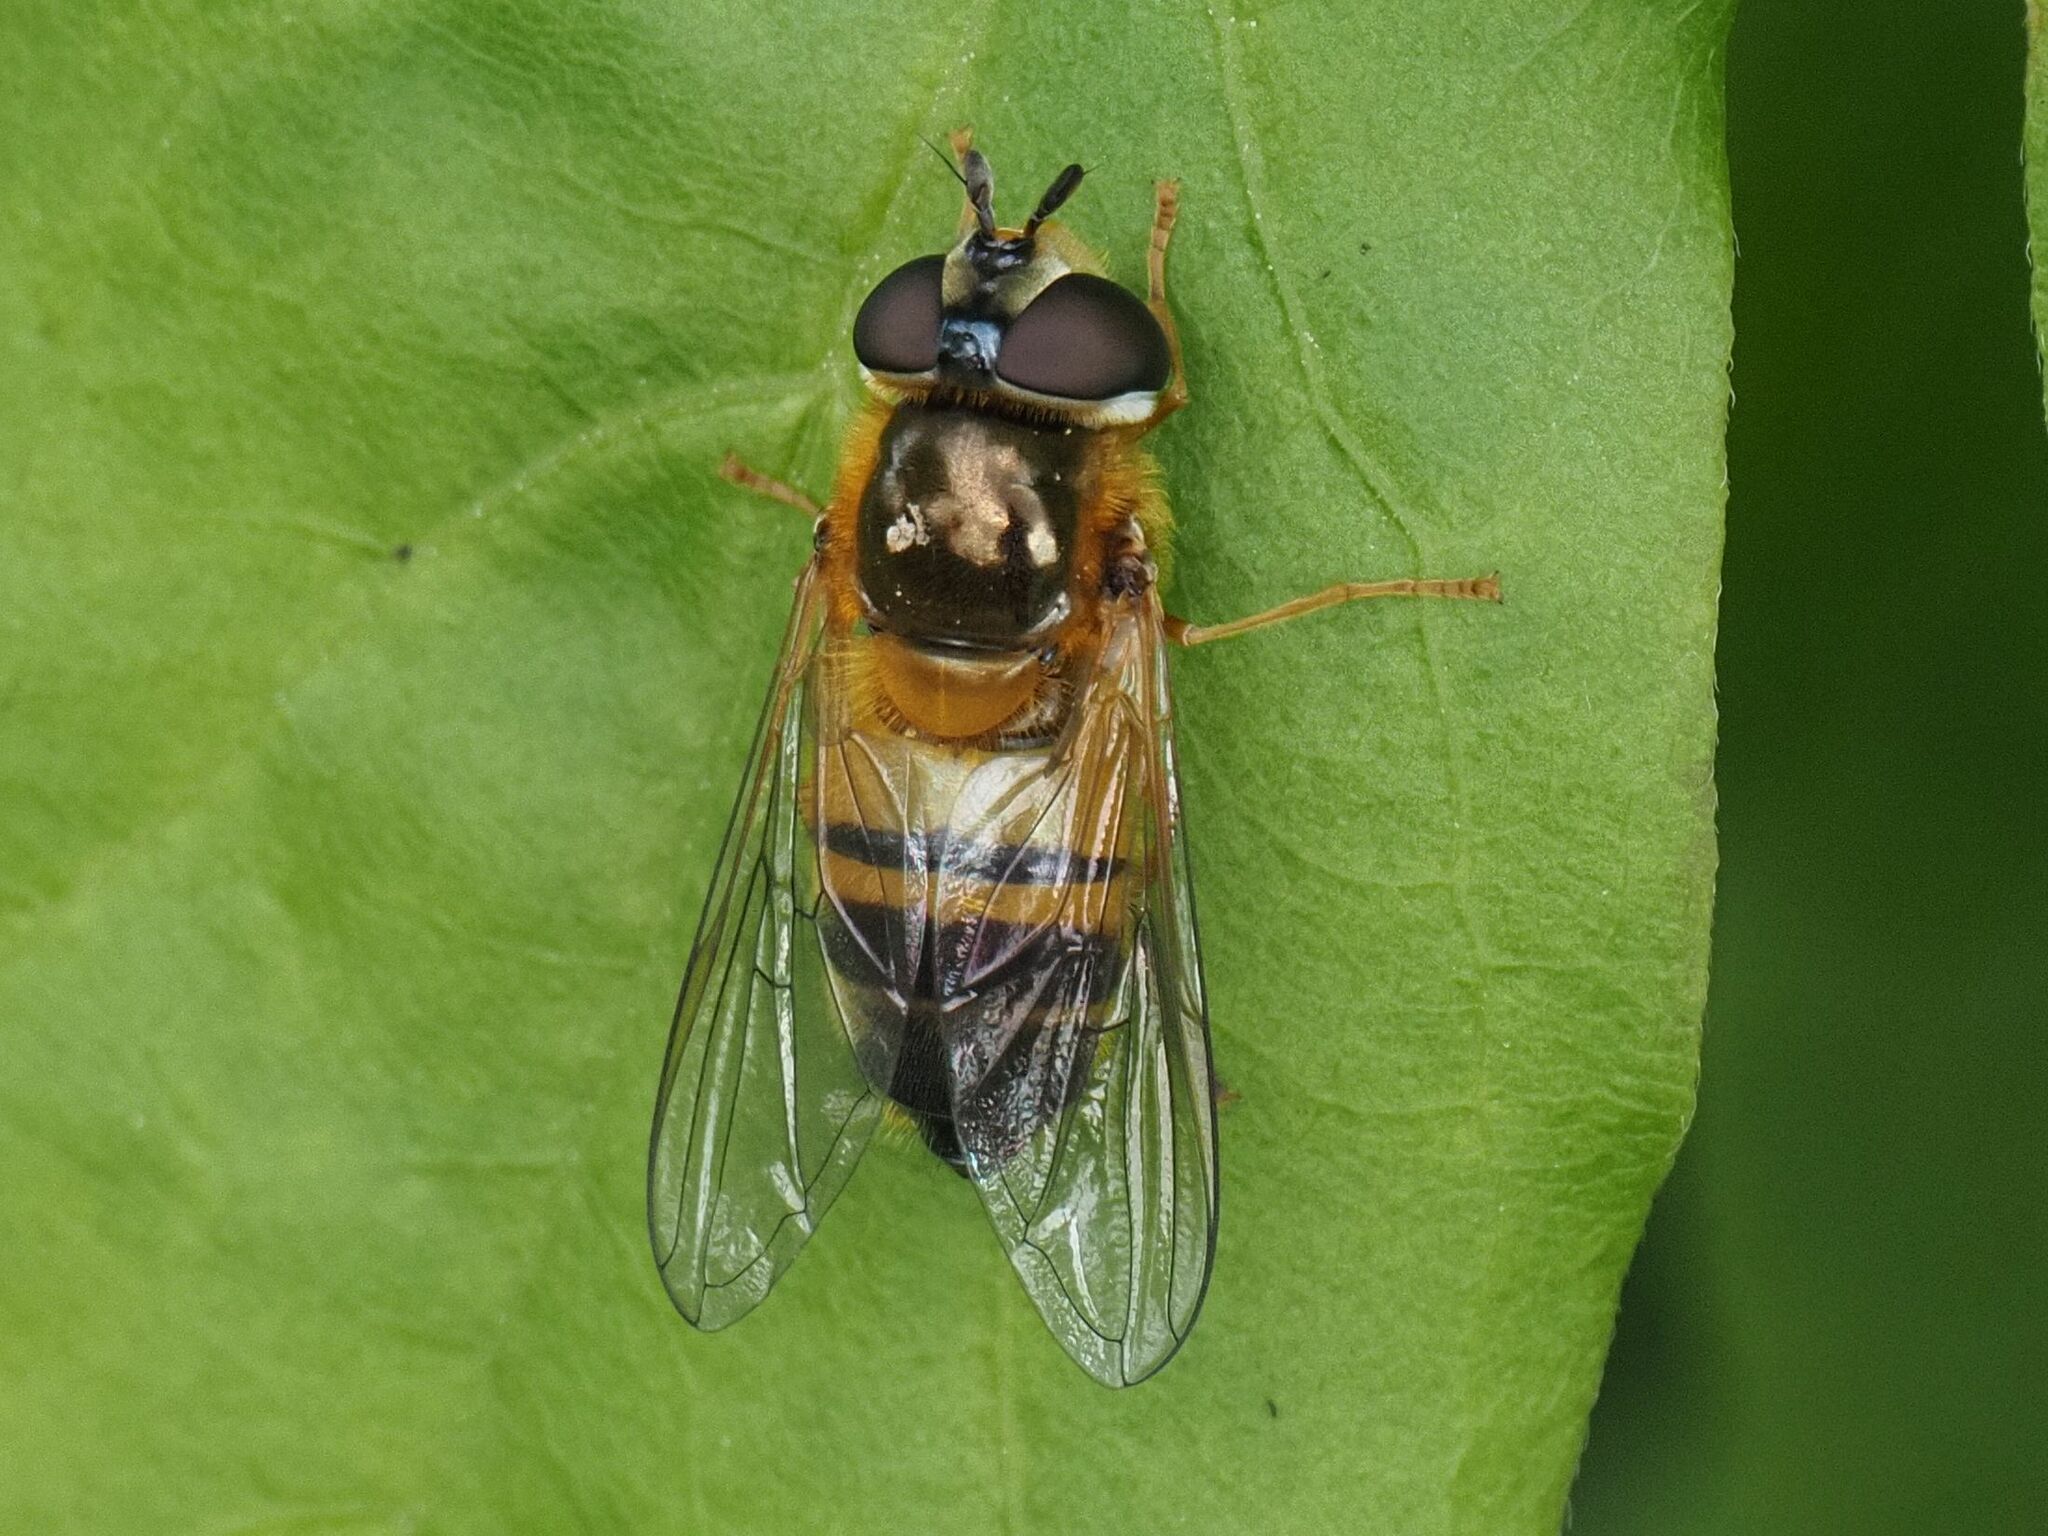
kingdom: Animalia
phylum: Arthropoda
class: Insecta
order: Diptera
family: Syrphidae
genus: Epistrophe
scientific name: Epistrophe eligans
